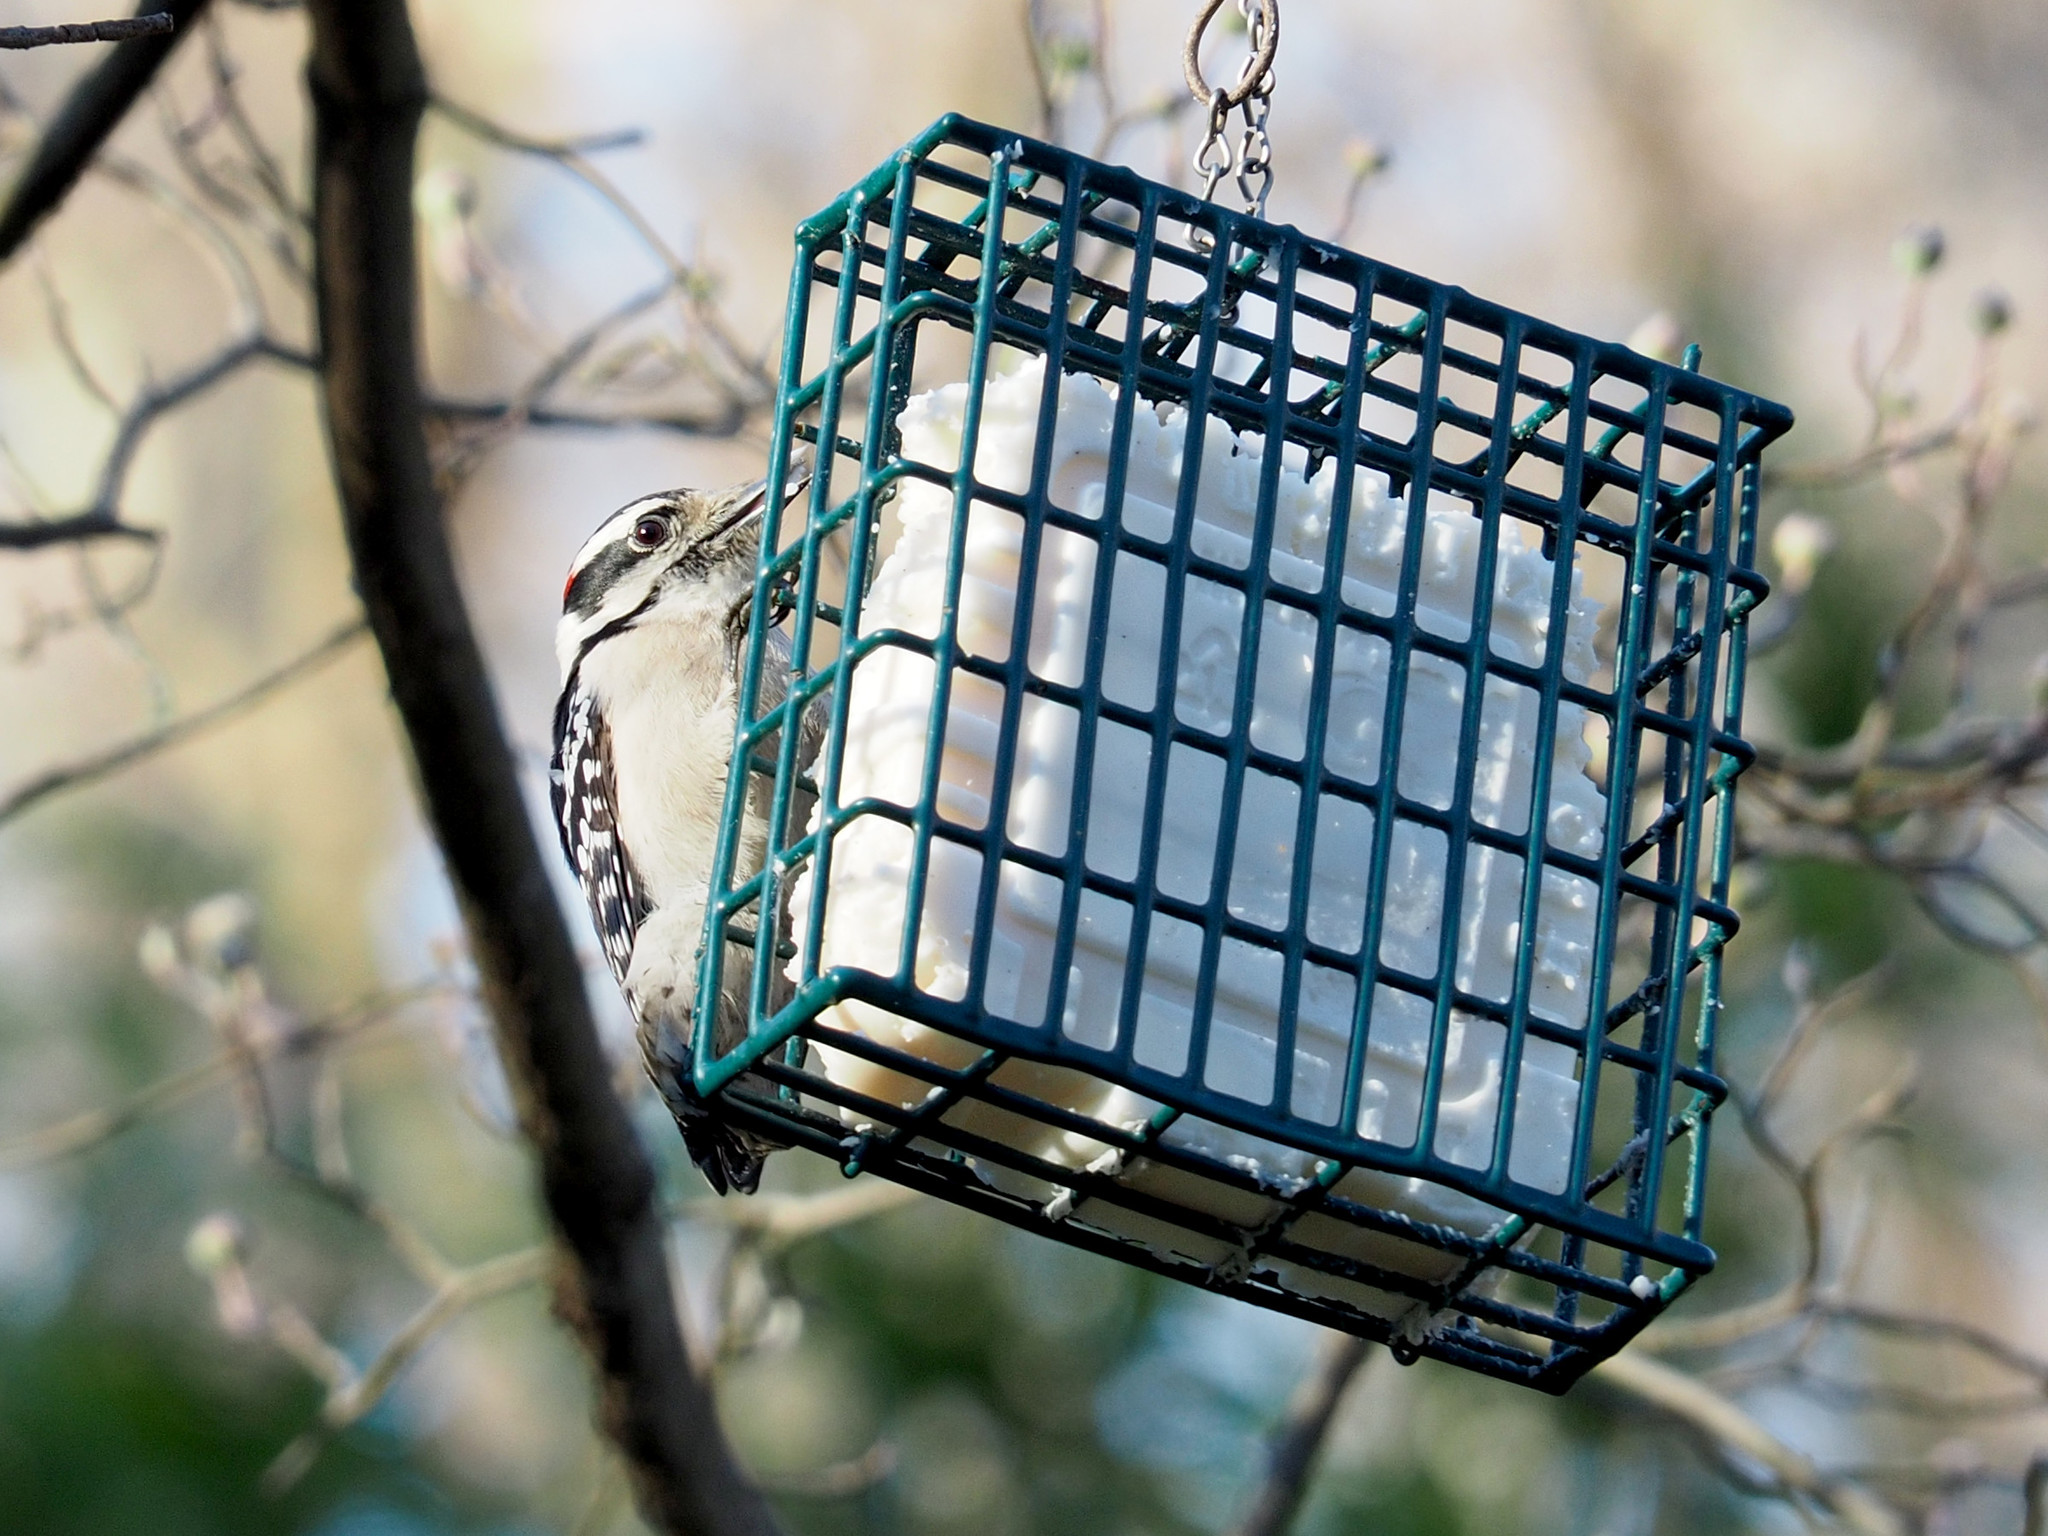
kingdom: Animalia
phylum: Chordata
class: Aves
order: Piciformes
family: Picidae
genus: Dryobates
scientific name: Dryobates pubescens
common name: Downy woodpecker
